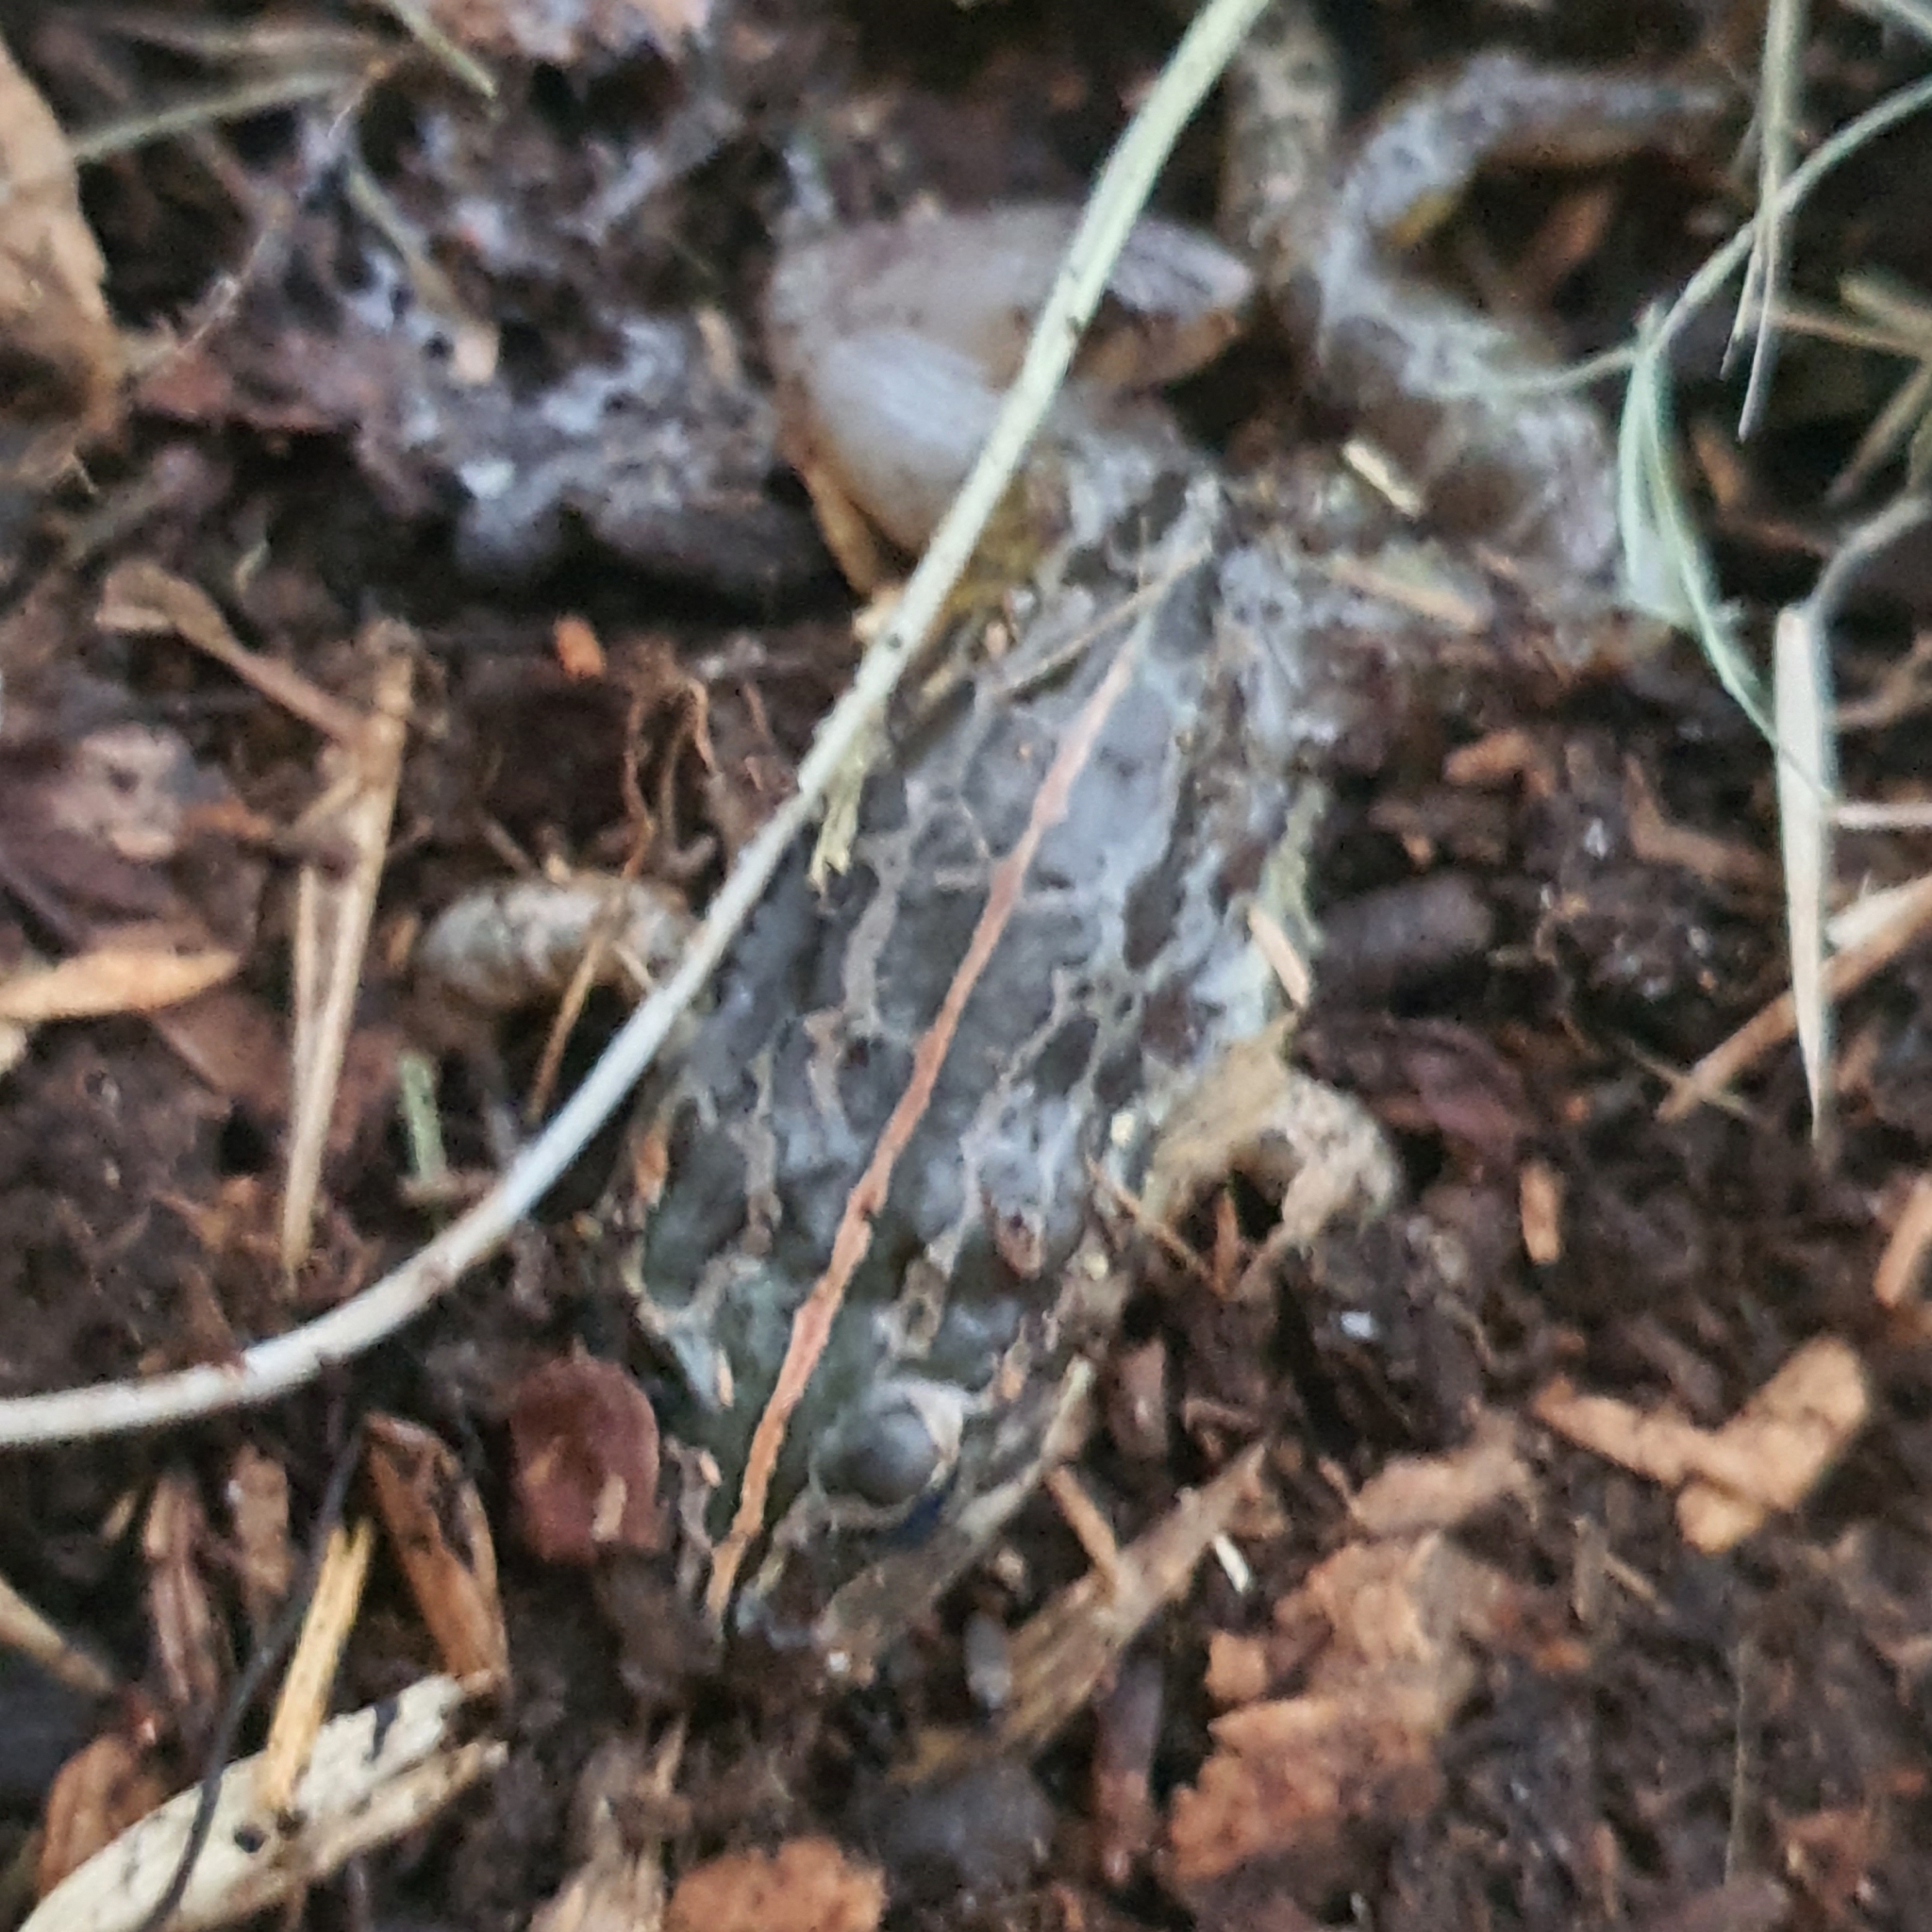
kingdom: Animalia
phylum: Chordata
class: Amphibia
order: Anura
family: Limnodynastidae
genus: Limnodynastes
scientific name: Limnodynastes tasmaniensis
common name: Spotted marsh frog
